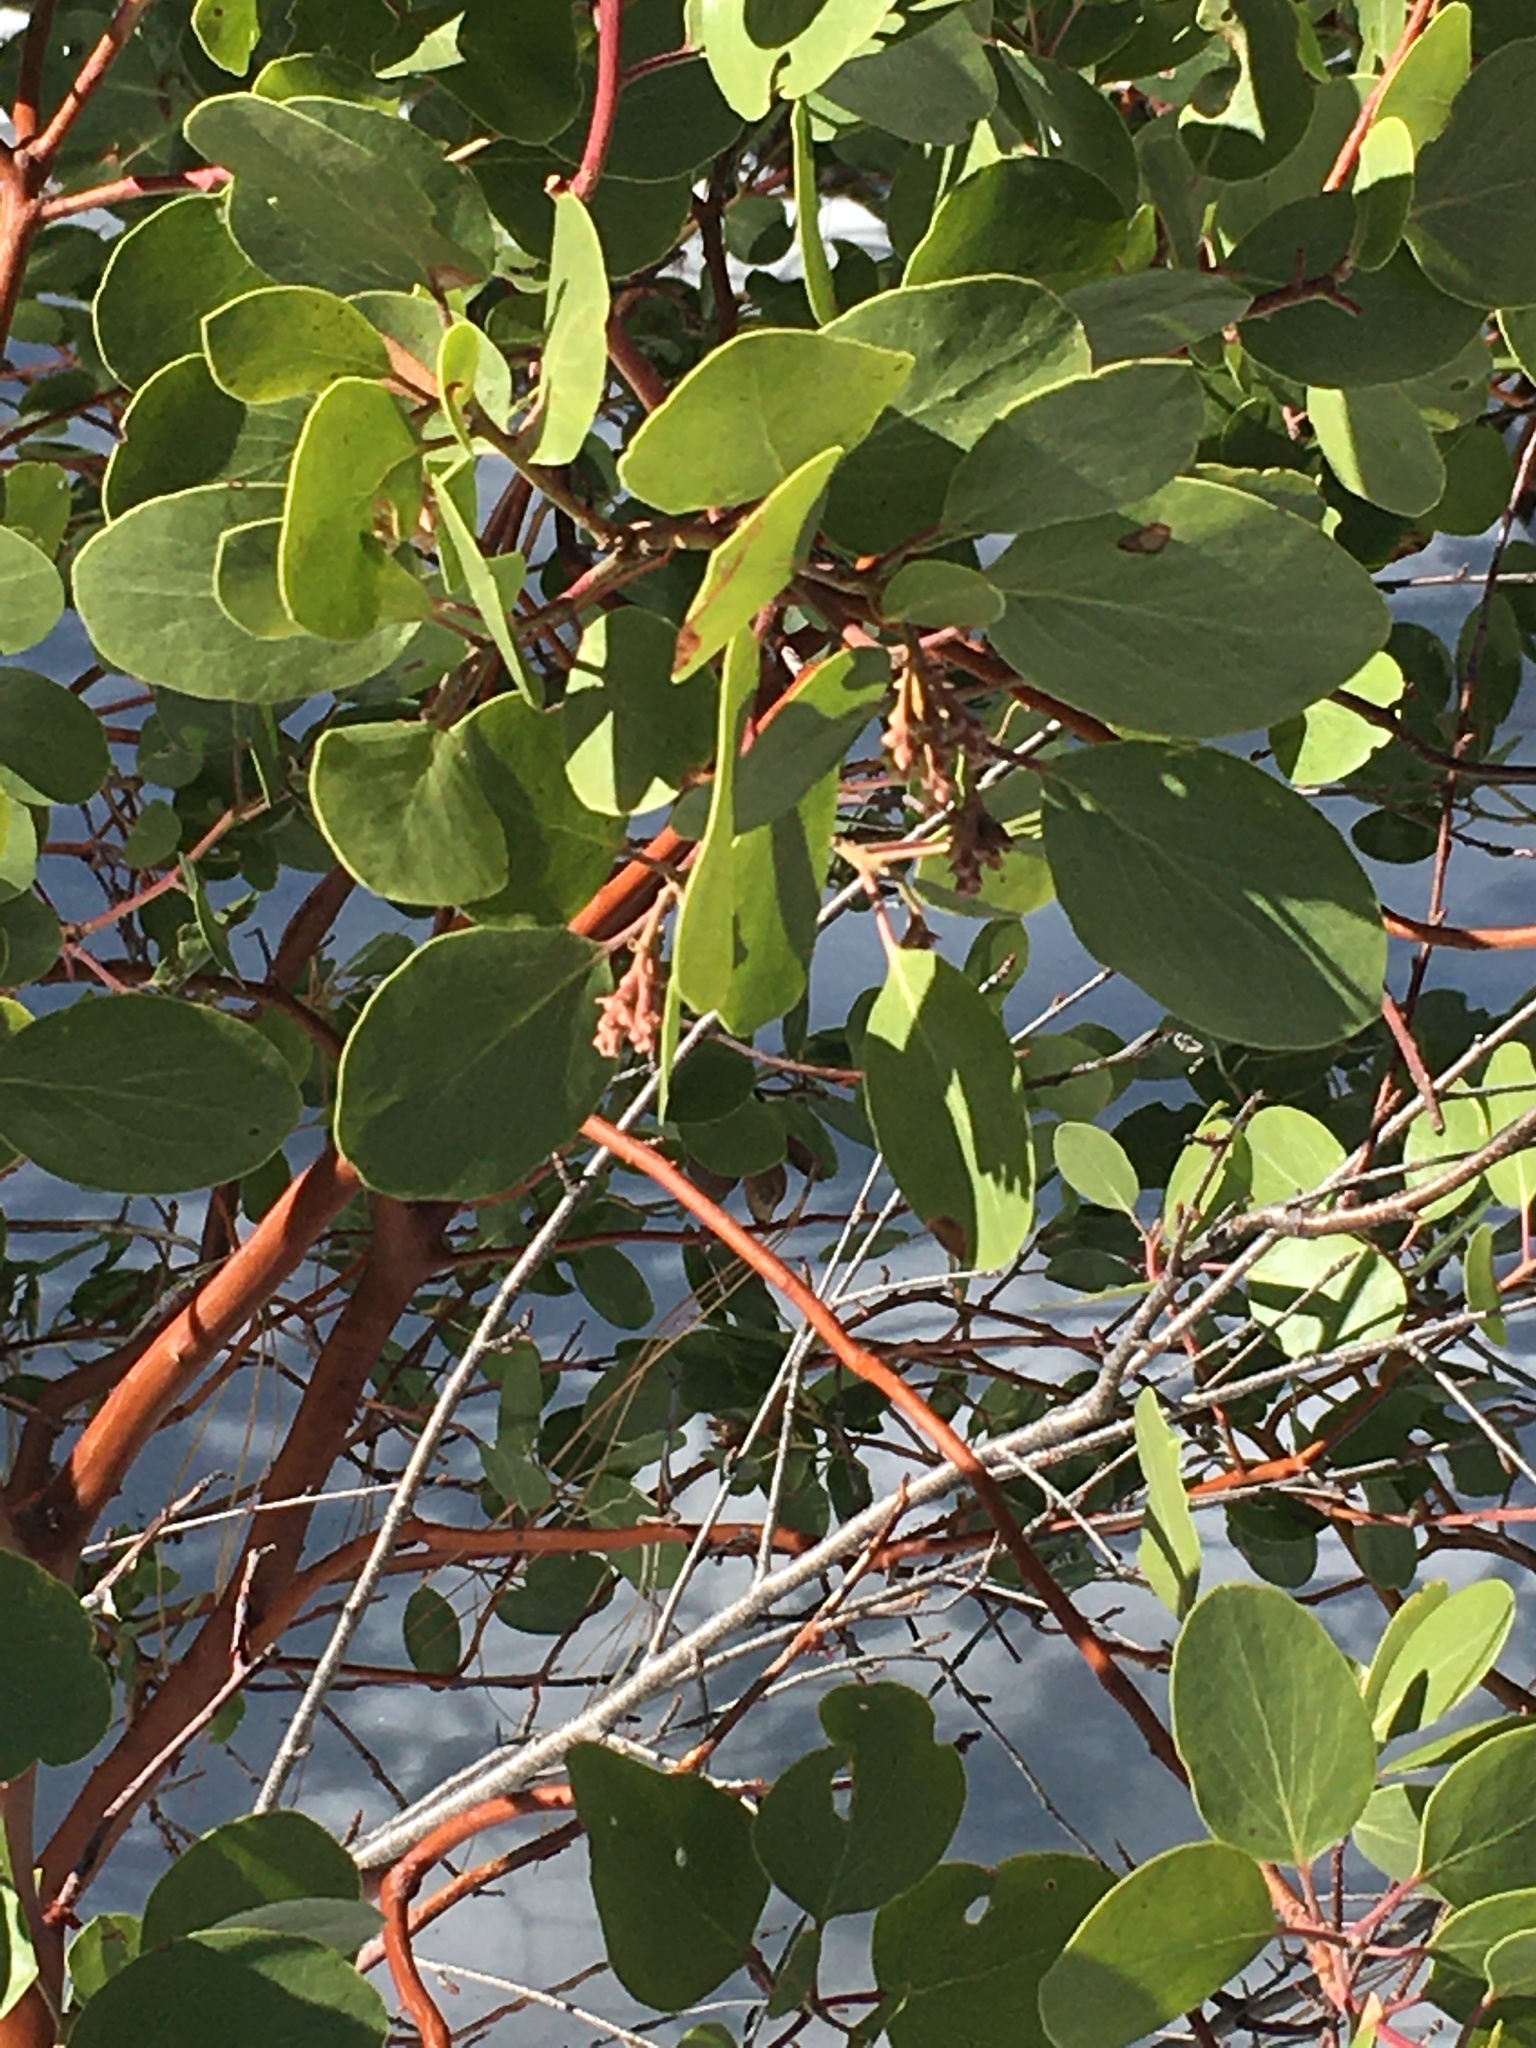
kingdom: Plantae
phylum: Tracheophyta
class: Magnoliopsida
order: Ericales
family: Ericaceae
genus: Arctostaphylos
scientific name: Arctostaphylos patula
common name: Green-leaf manzanita
